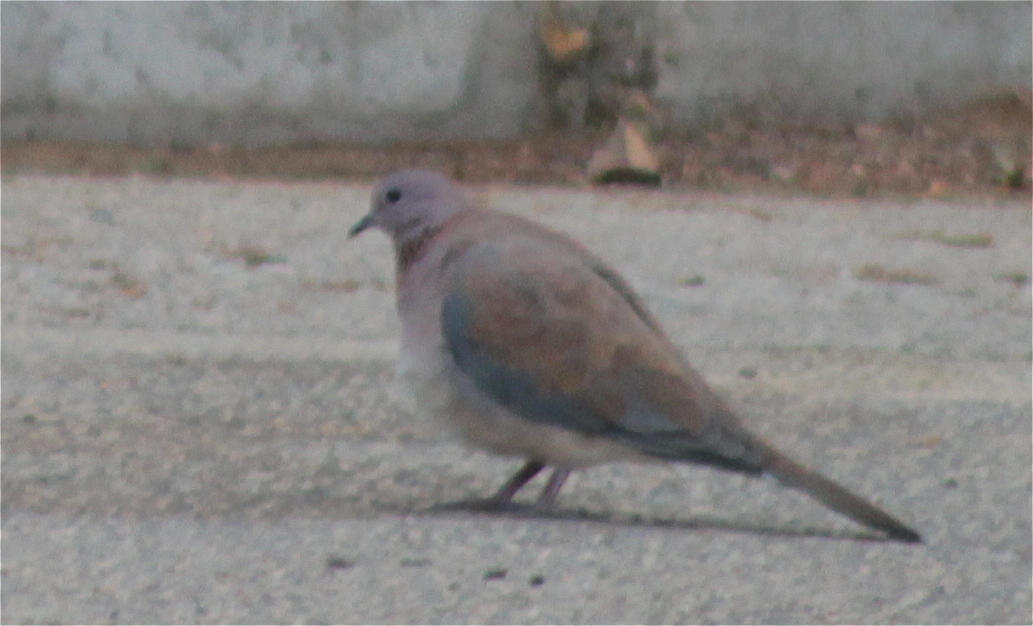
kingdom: Animalia
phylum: Chordata
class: Aves
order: Columbiformes
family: Columbidae
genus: Spilopelia
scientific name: Spilopelia senegalensis
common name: Laughing dove
